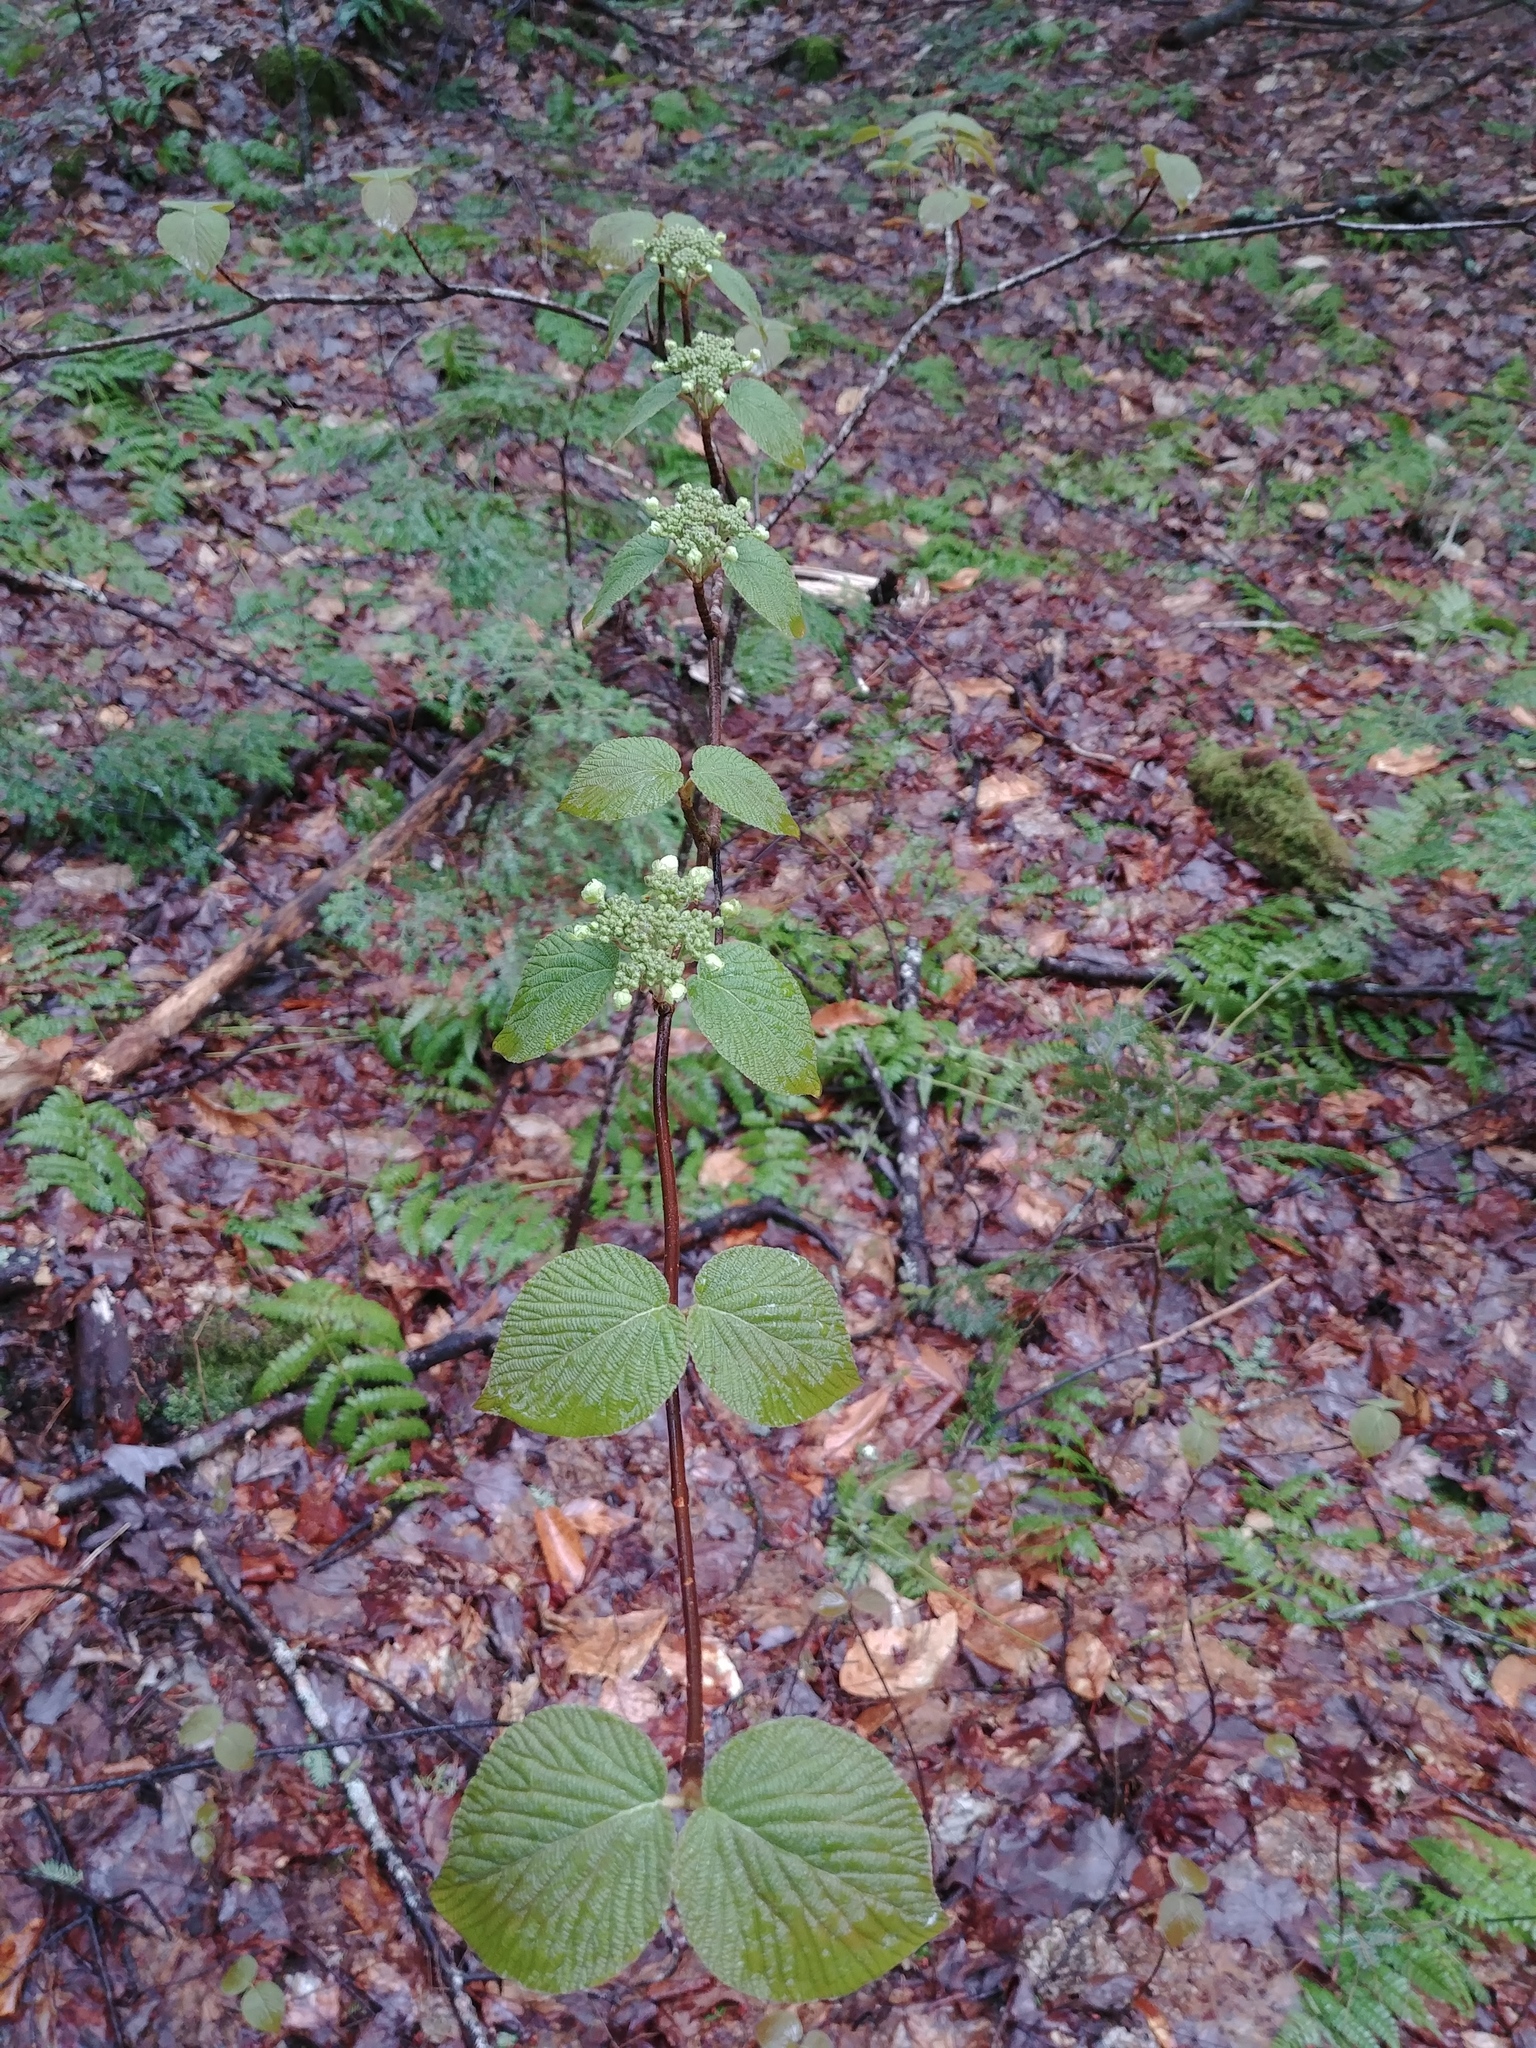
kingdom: Plantae
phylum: Tracheophyta
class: Magnoliopsida
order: Dipsacales
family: Viburnaceae
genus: Viburnum
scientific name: Viburnum lantanoides
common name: Hobblebush
